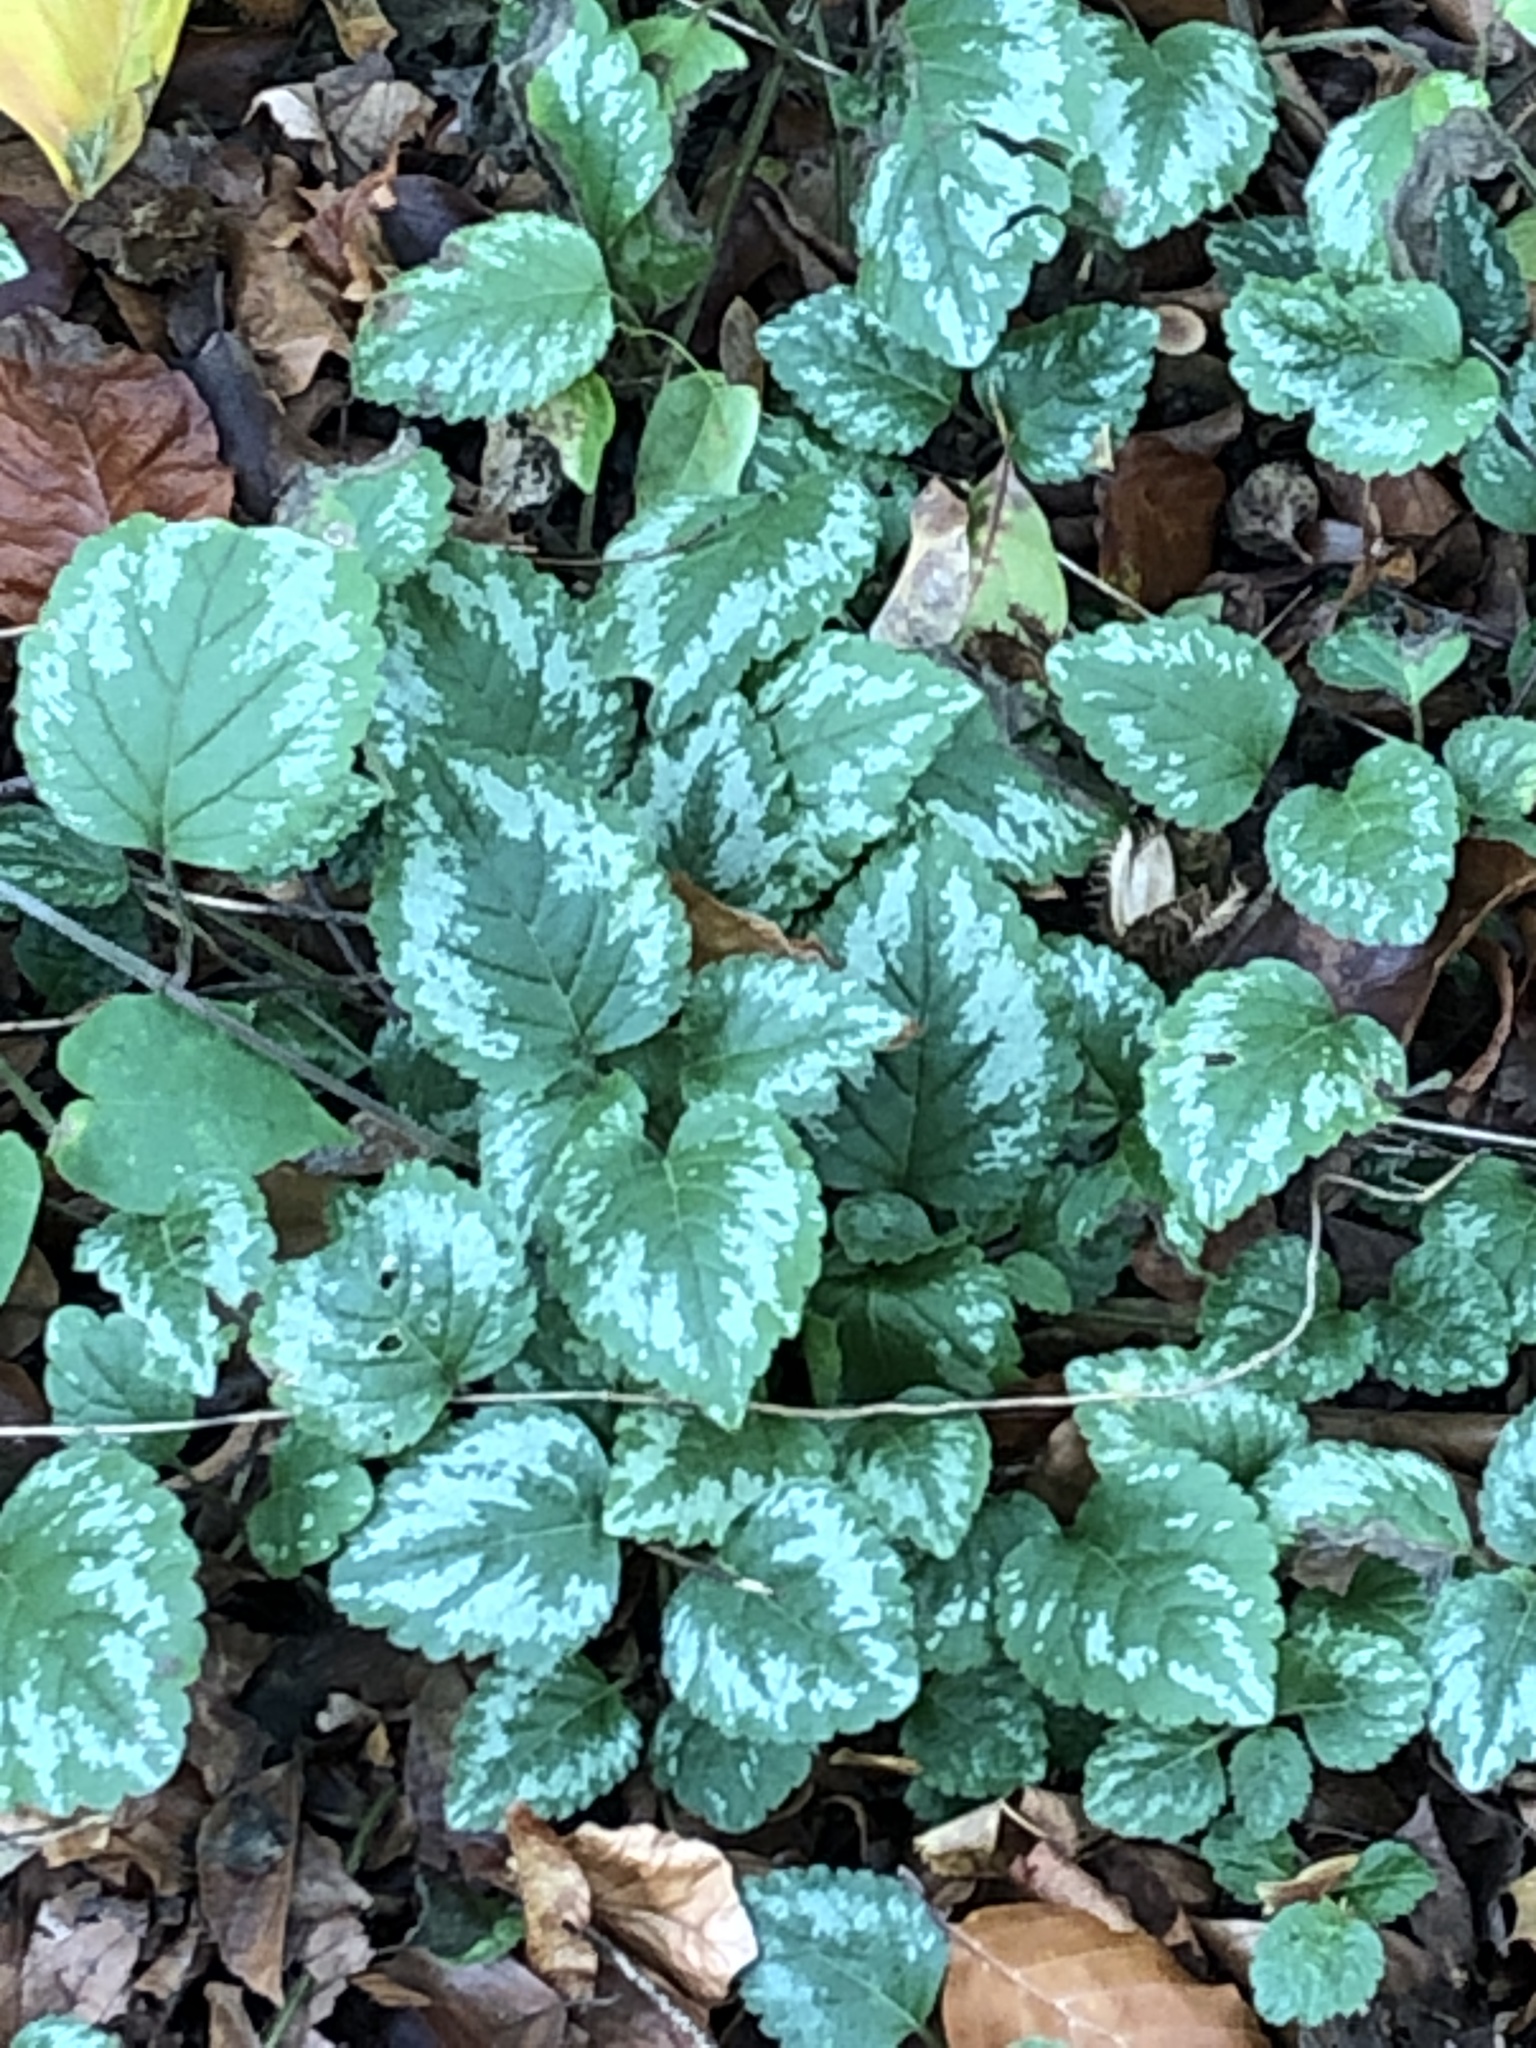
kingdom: Plantae
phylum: Tracheophyta
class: Magnoliopsida
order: Lamiales
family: Lamiaceae
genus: Lamium
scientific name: Lamium galeobdolon
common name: Yellow archangel
